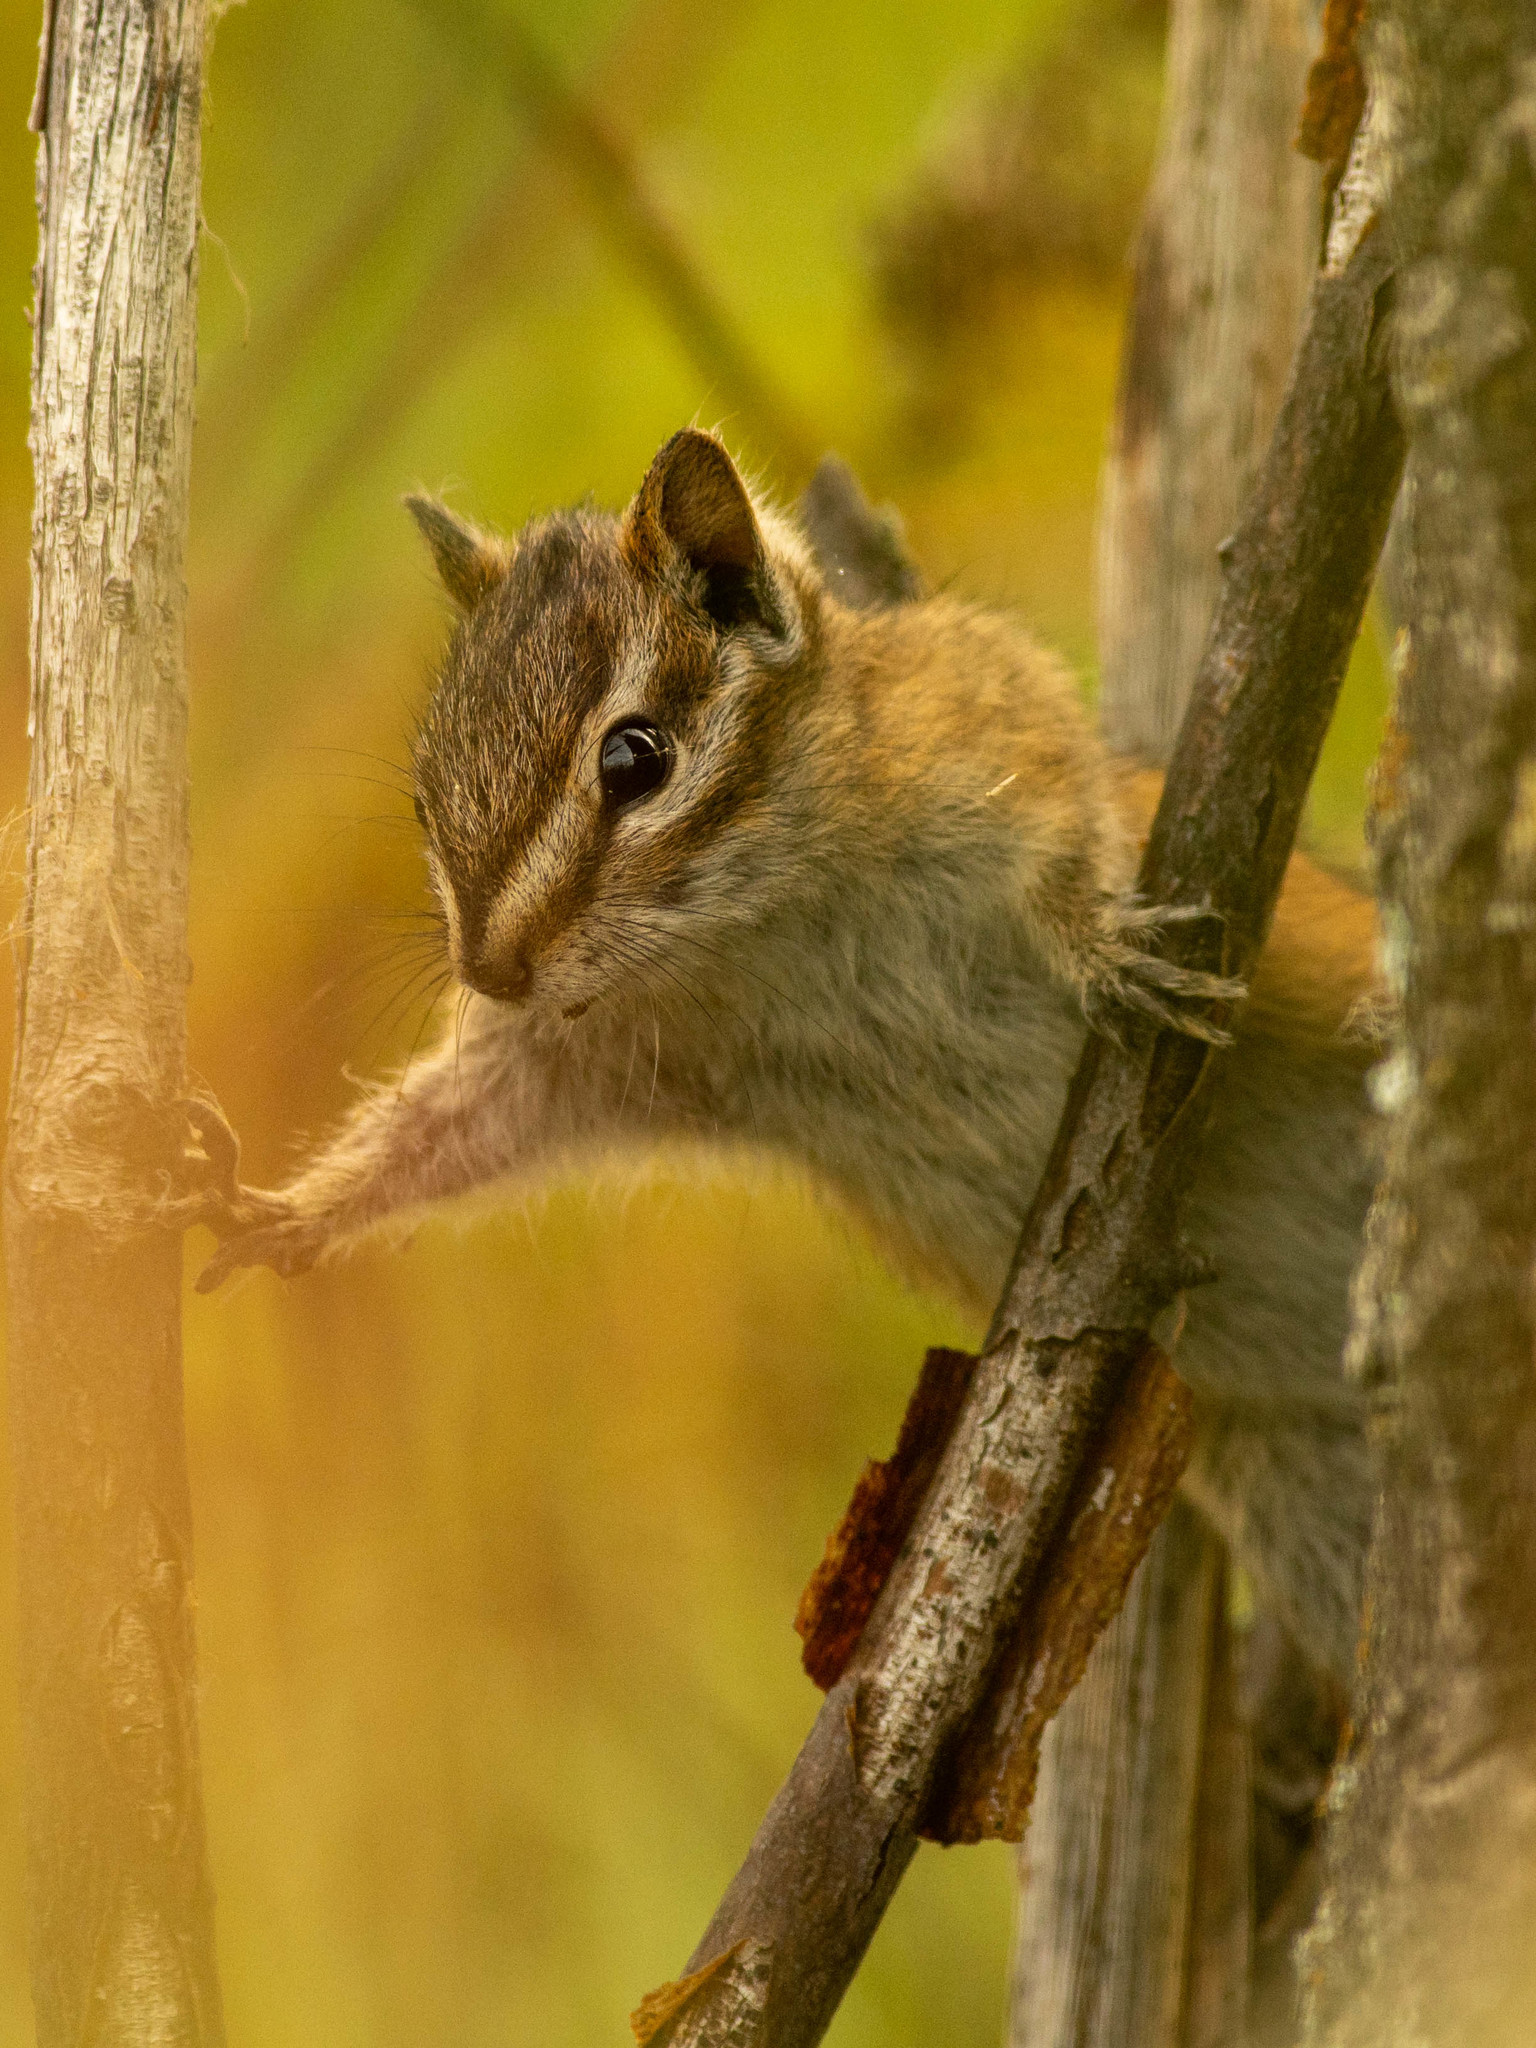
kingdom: Animalia
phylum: Chordata
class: Mammalia
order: Rodentia
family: Sciuridae
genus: Tamias
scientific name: Tamias minimus
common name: Least chipmunk
